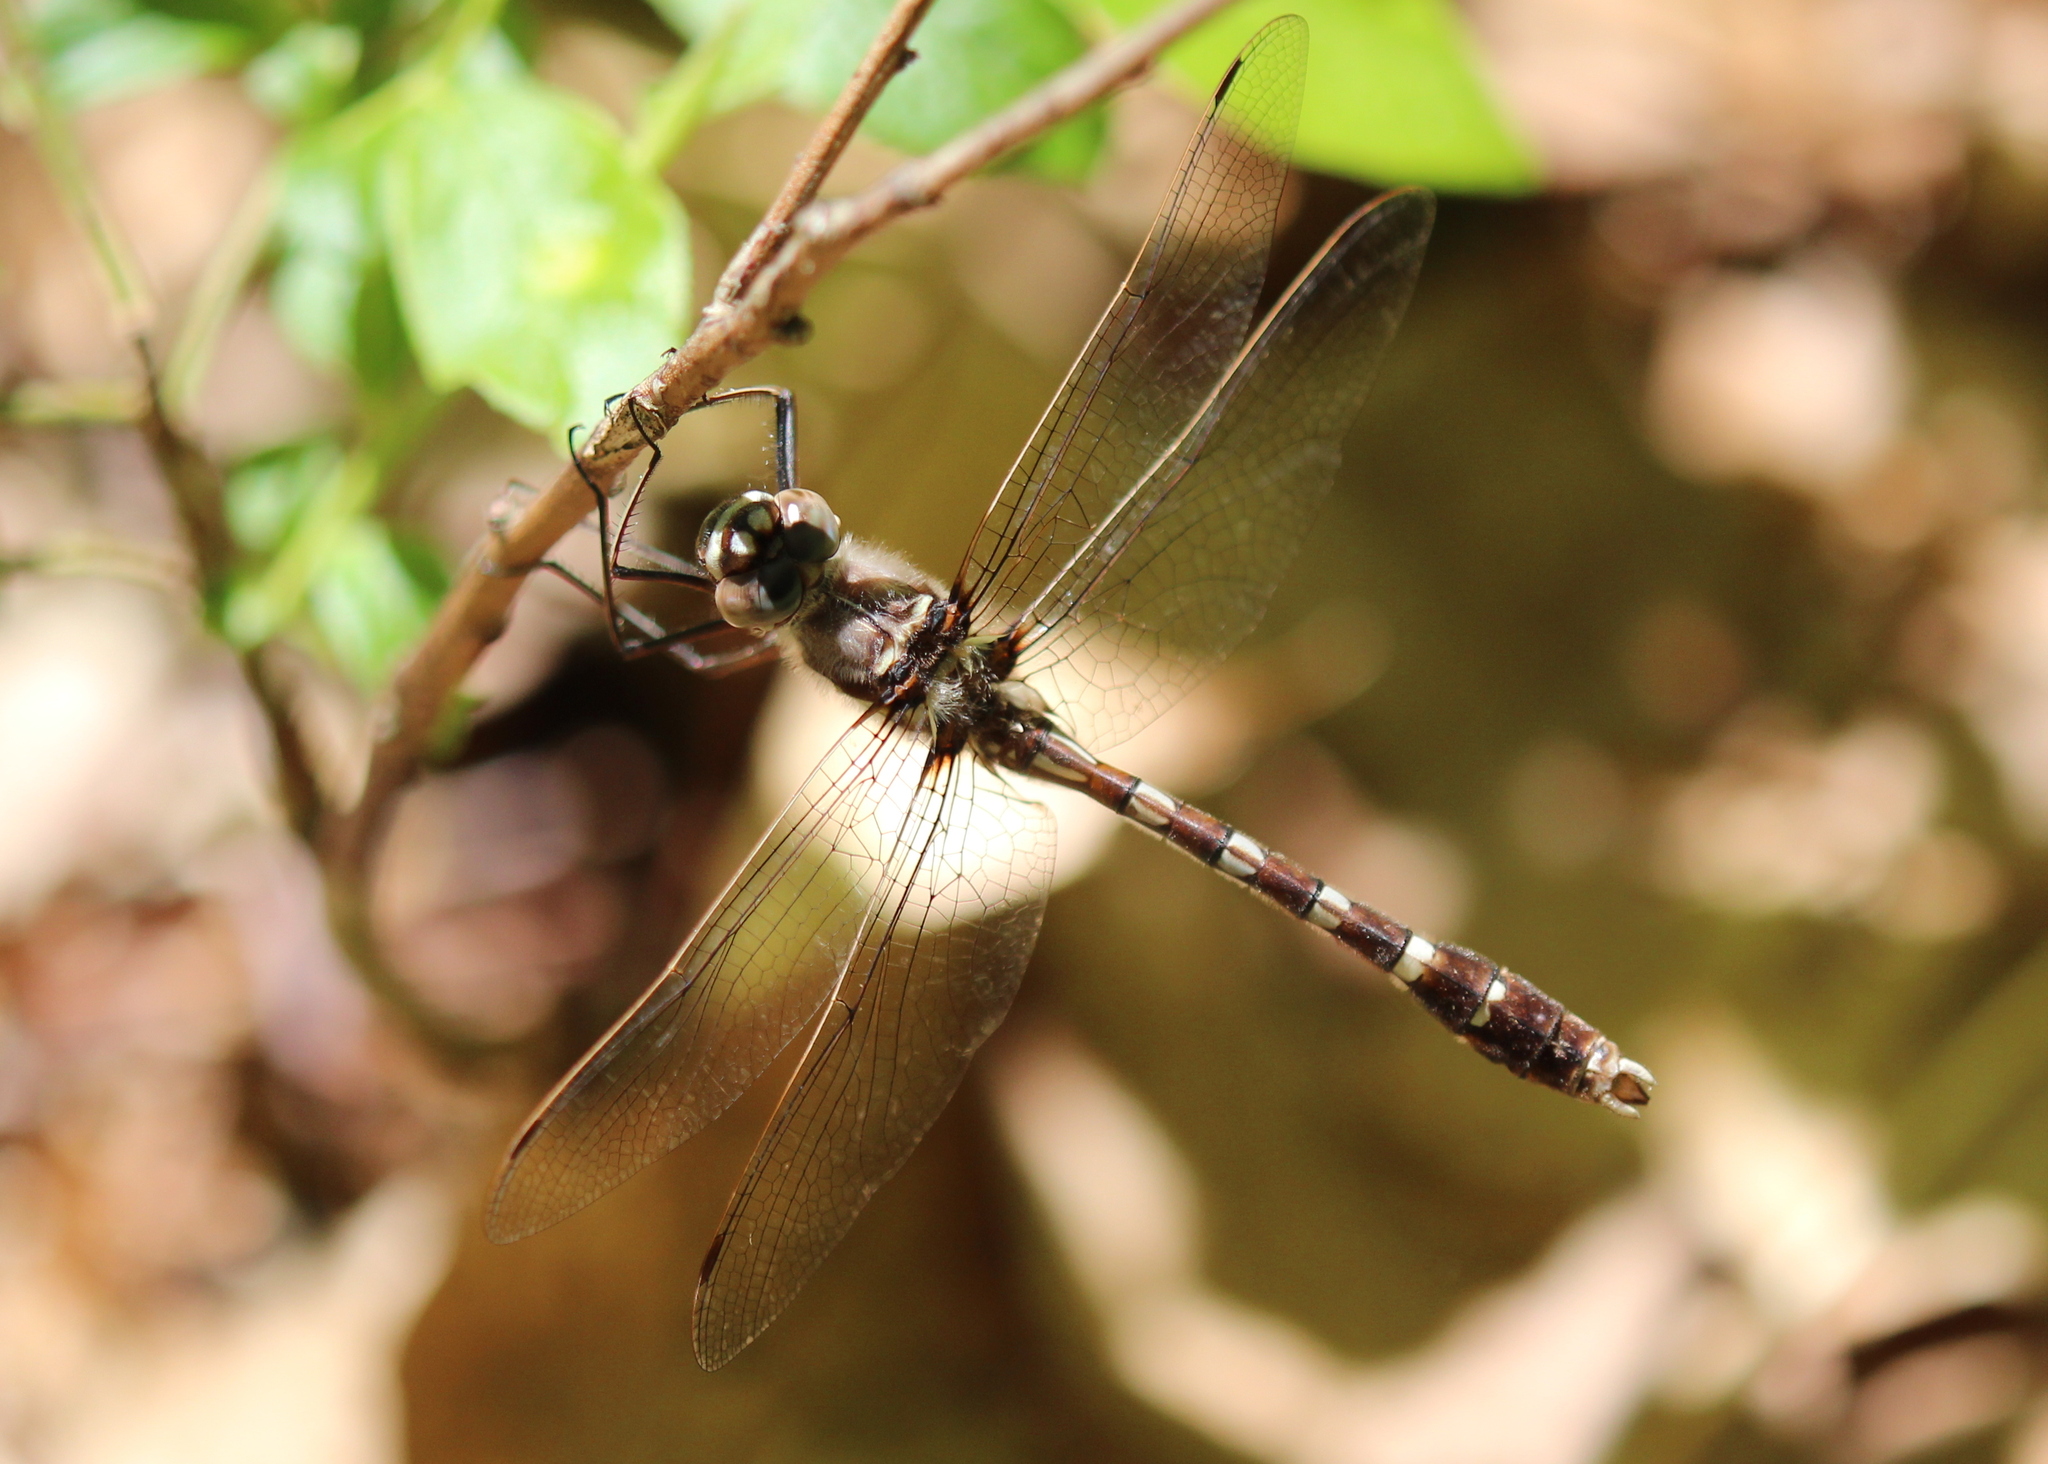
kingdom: Animalia
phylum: Arthropoda
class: Insecta
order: Odonata
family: Macromiidae
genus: Didymops
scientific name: Didymops transversa
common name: Stream cruiser
